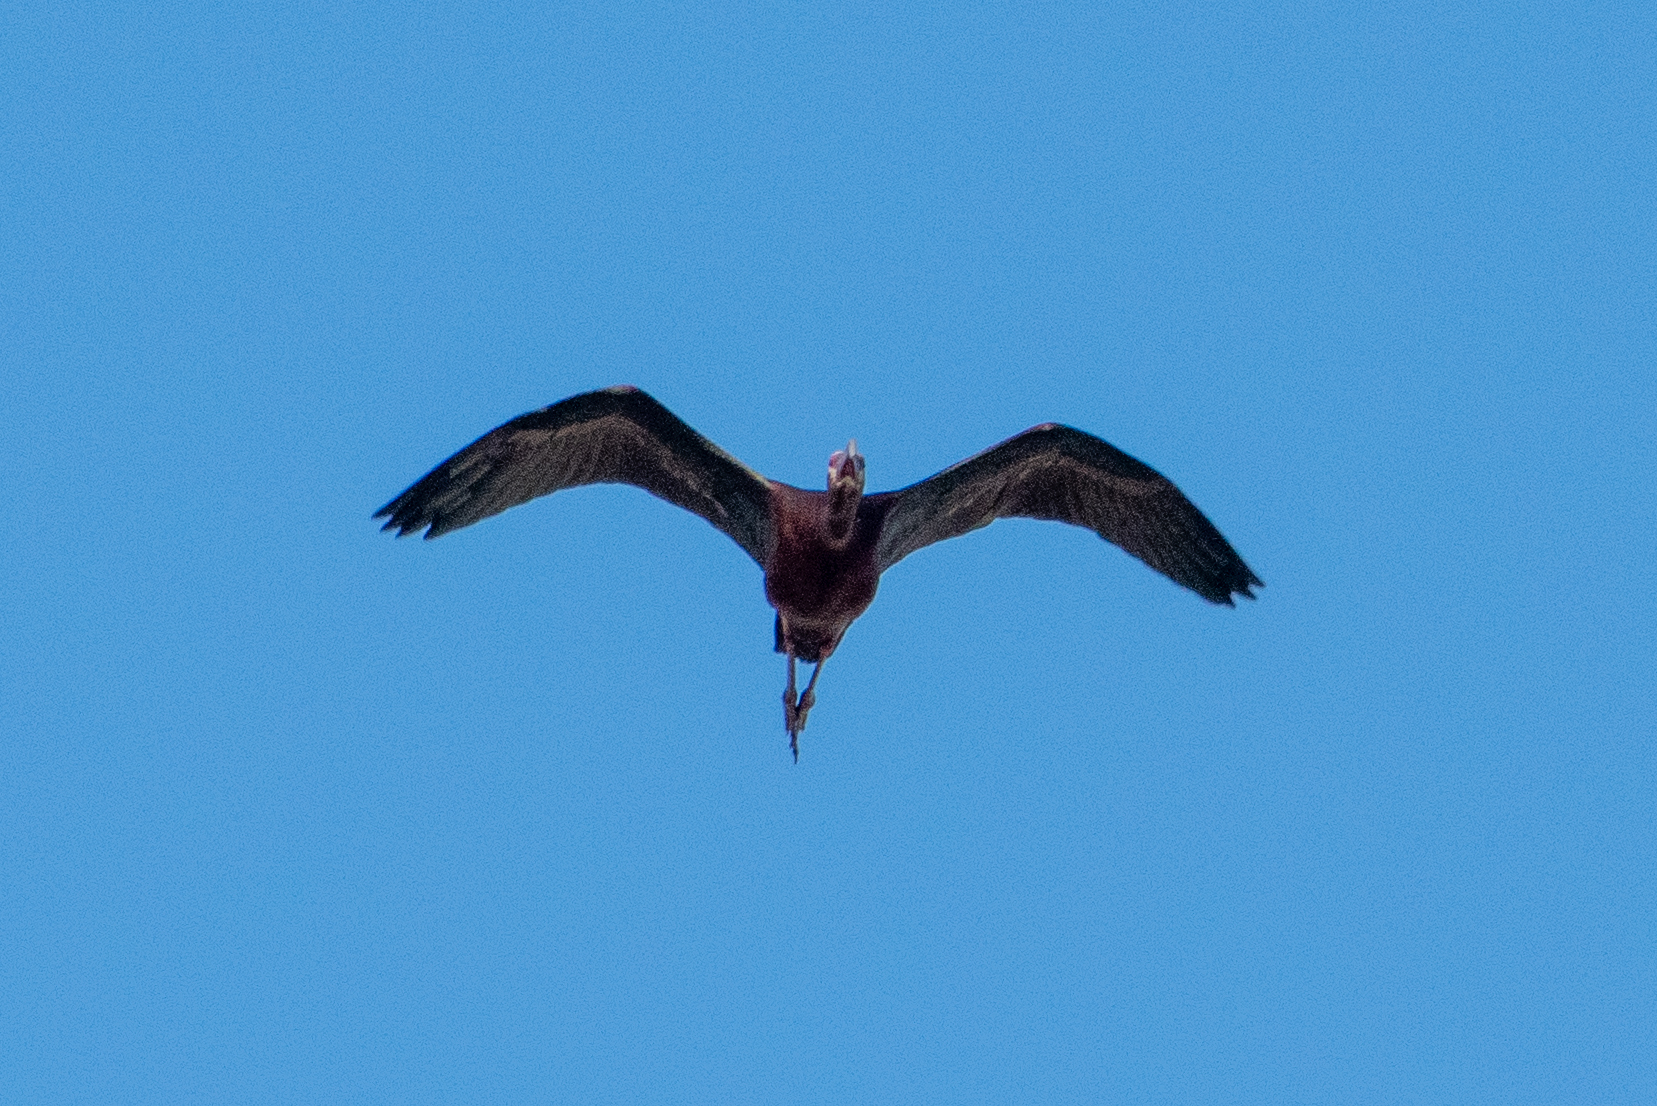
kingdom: Animalia
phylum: Chordata
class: Aves
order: Pelecaniformes
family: Threskiornithidae
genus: Plegadis
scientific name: Plegadis chihi
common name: White-faced ibis
